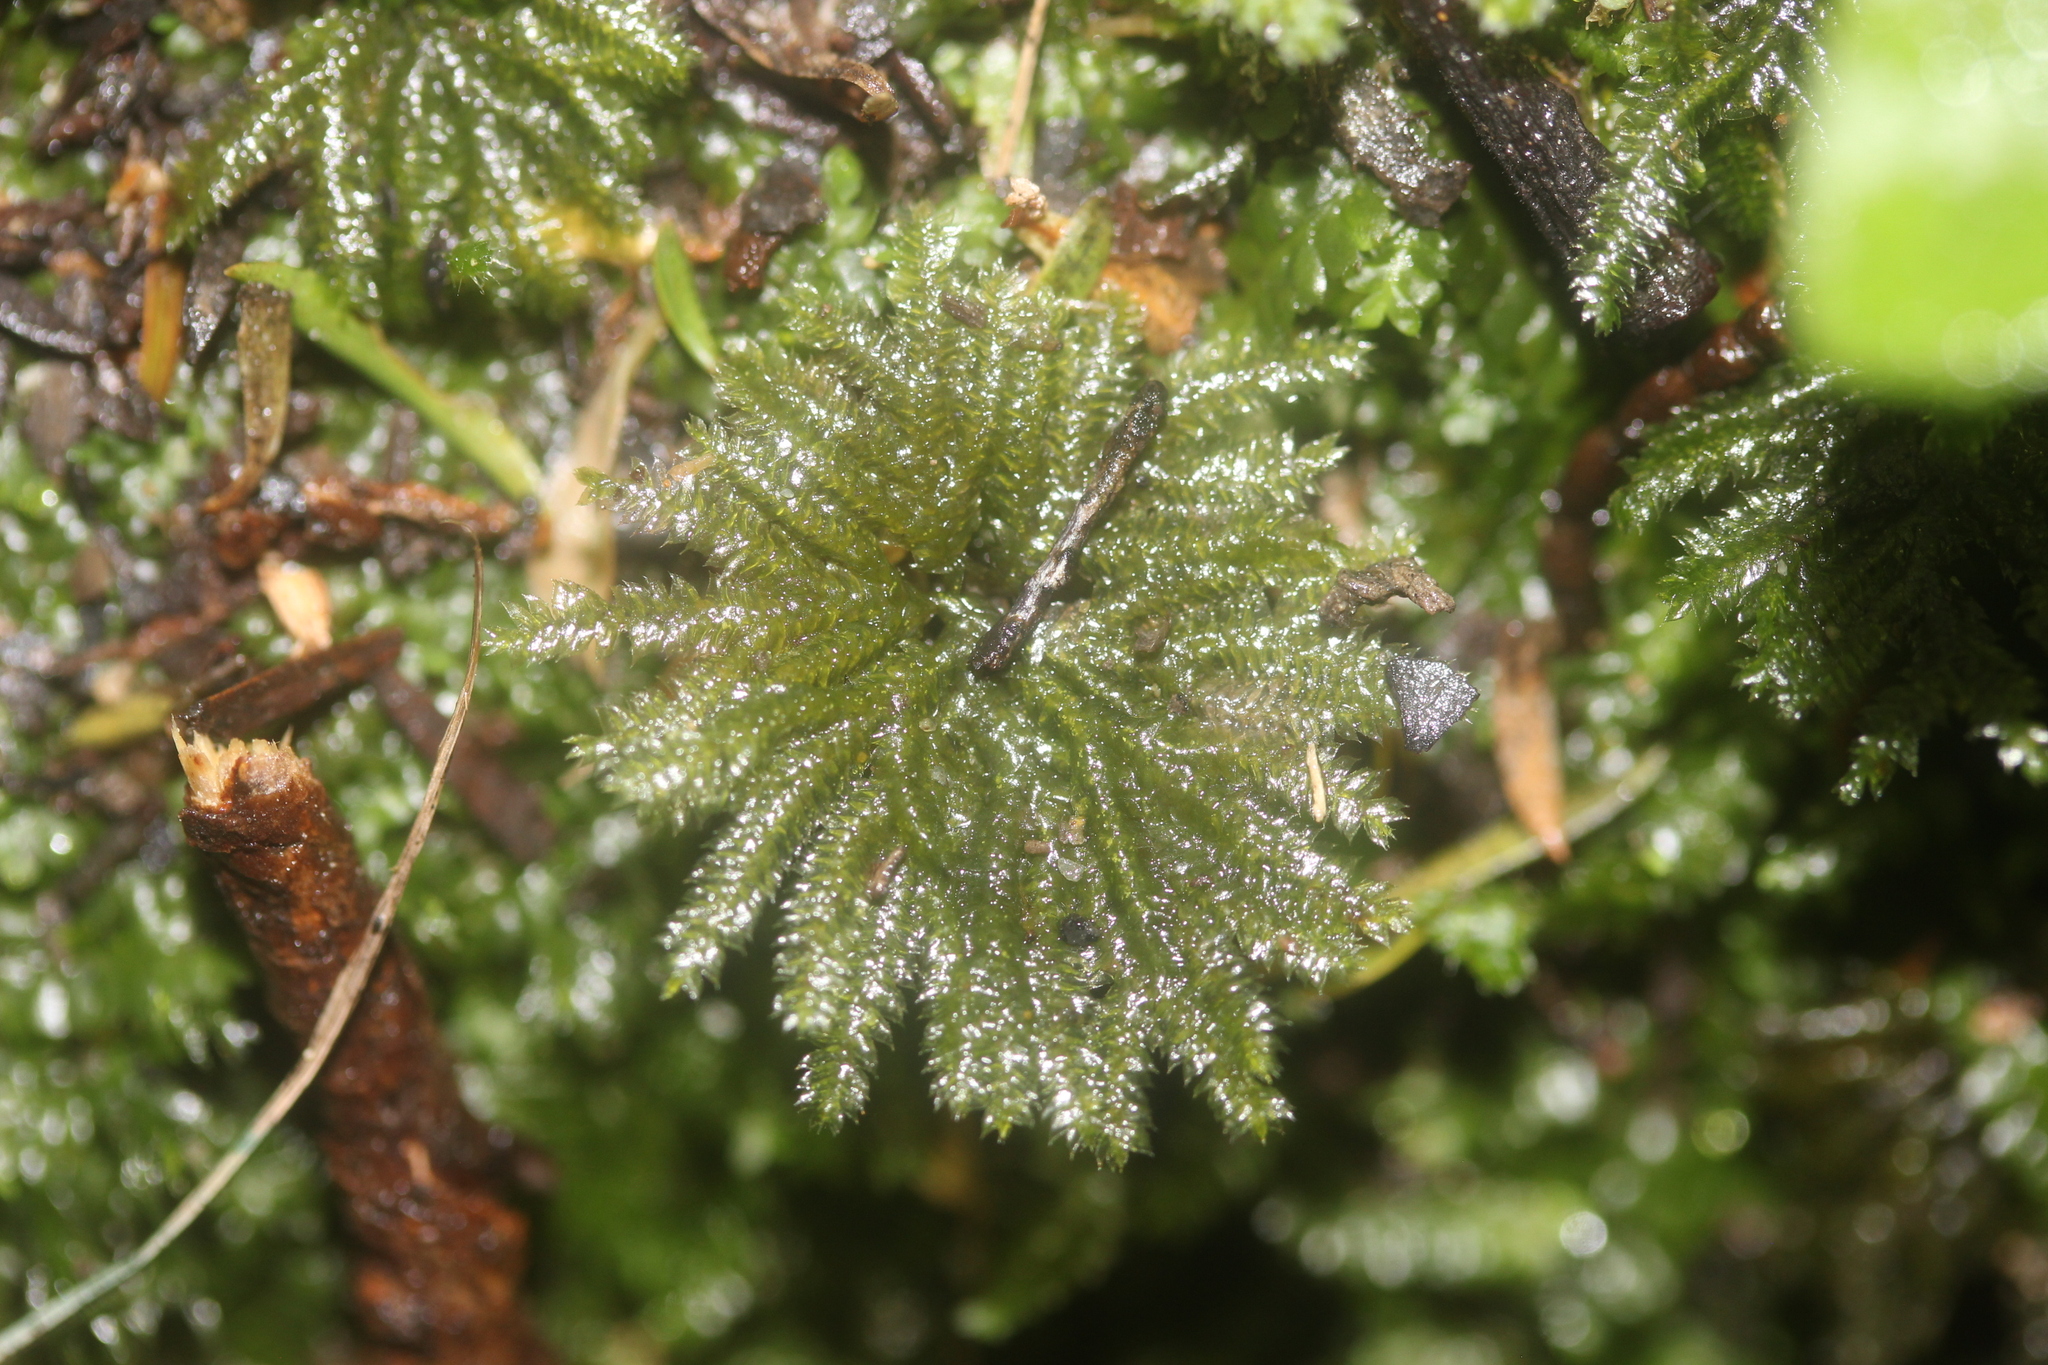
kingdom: Plantae
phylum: Bryophyta
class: Bryopsida
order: Hypopterygiales
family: Hypopterygiaceae
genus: Canalohypopterygium
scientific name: Canalohypopterygium tamariscinum
